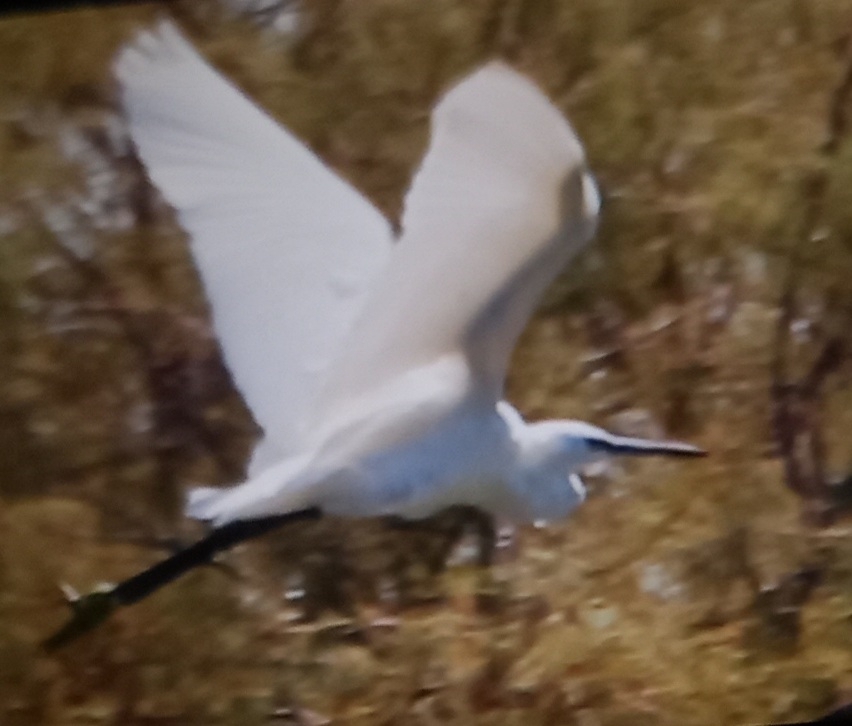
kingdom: Animalia
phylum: Chordata
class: Aves
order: Pelecaniformes
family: Ardeidae
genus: Egretta
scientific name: Egretta garzetta
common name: Little egret
